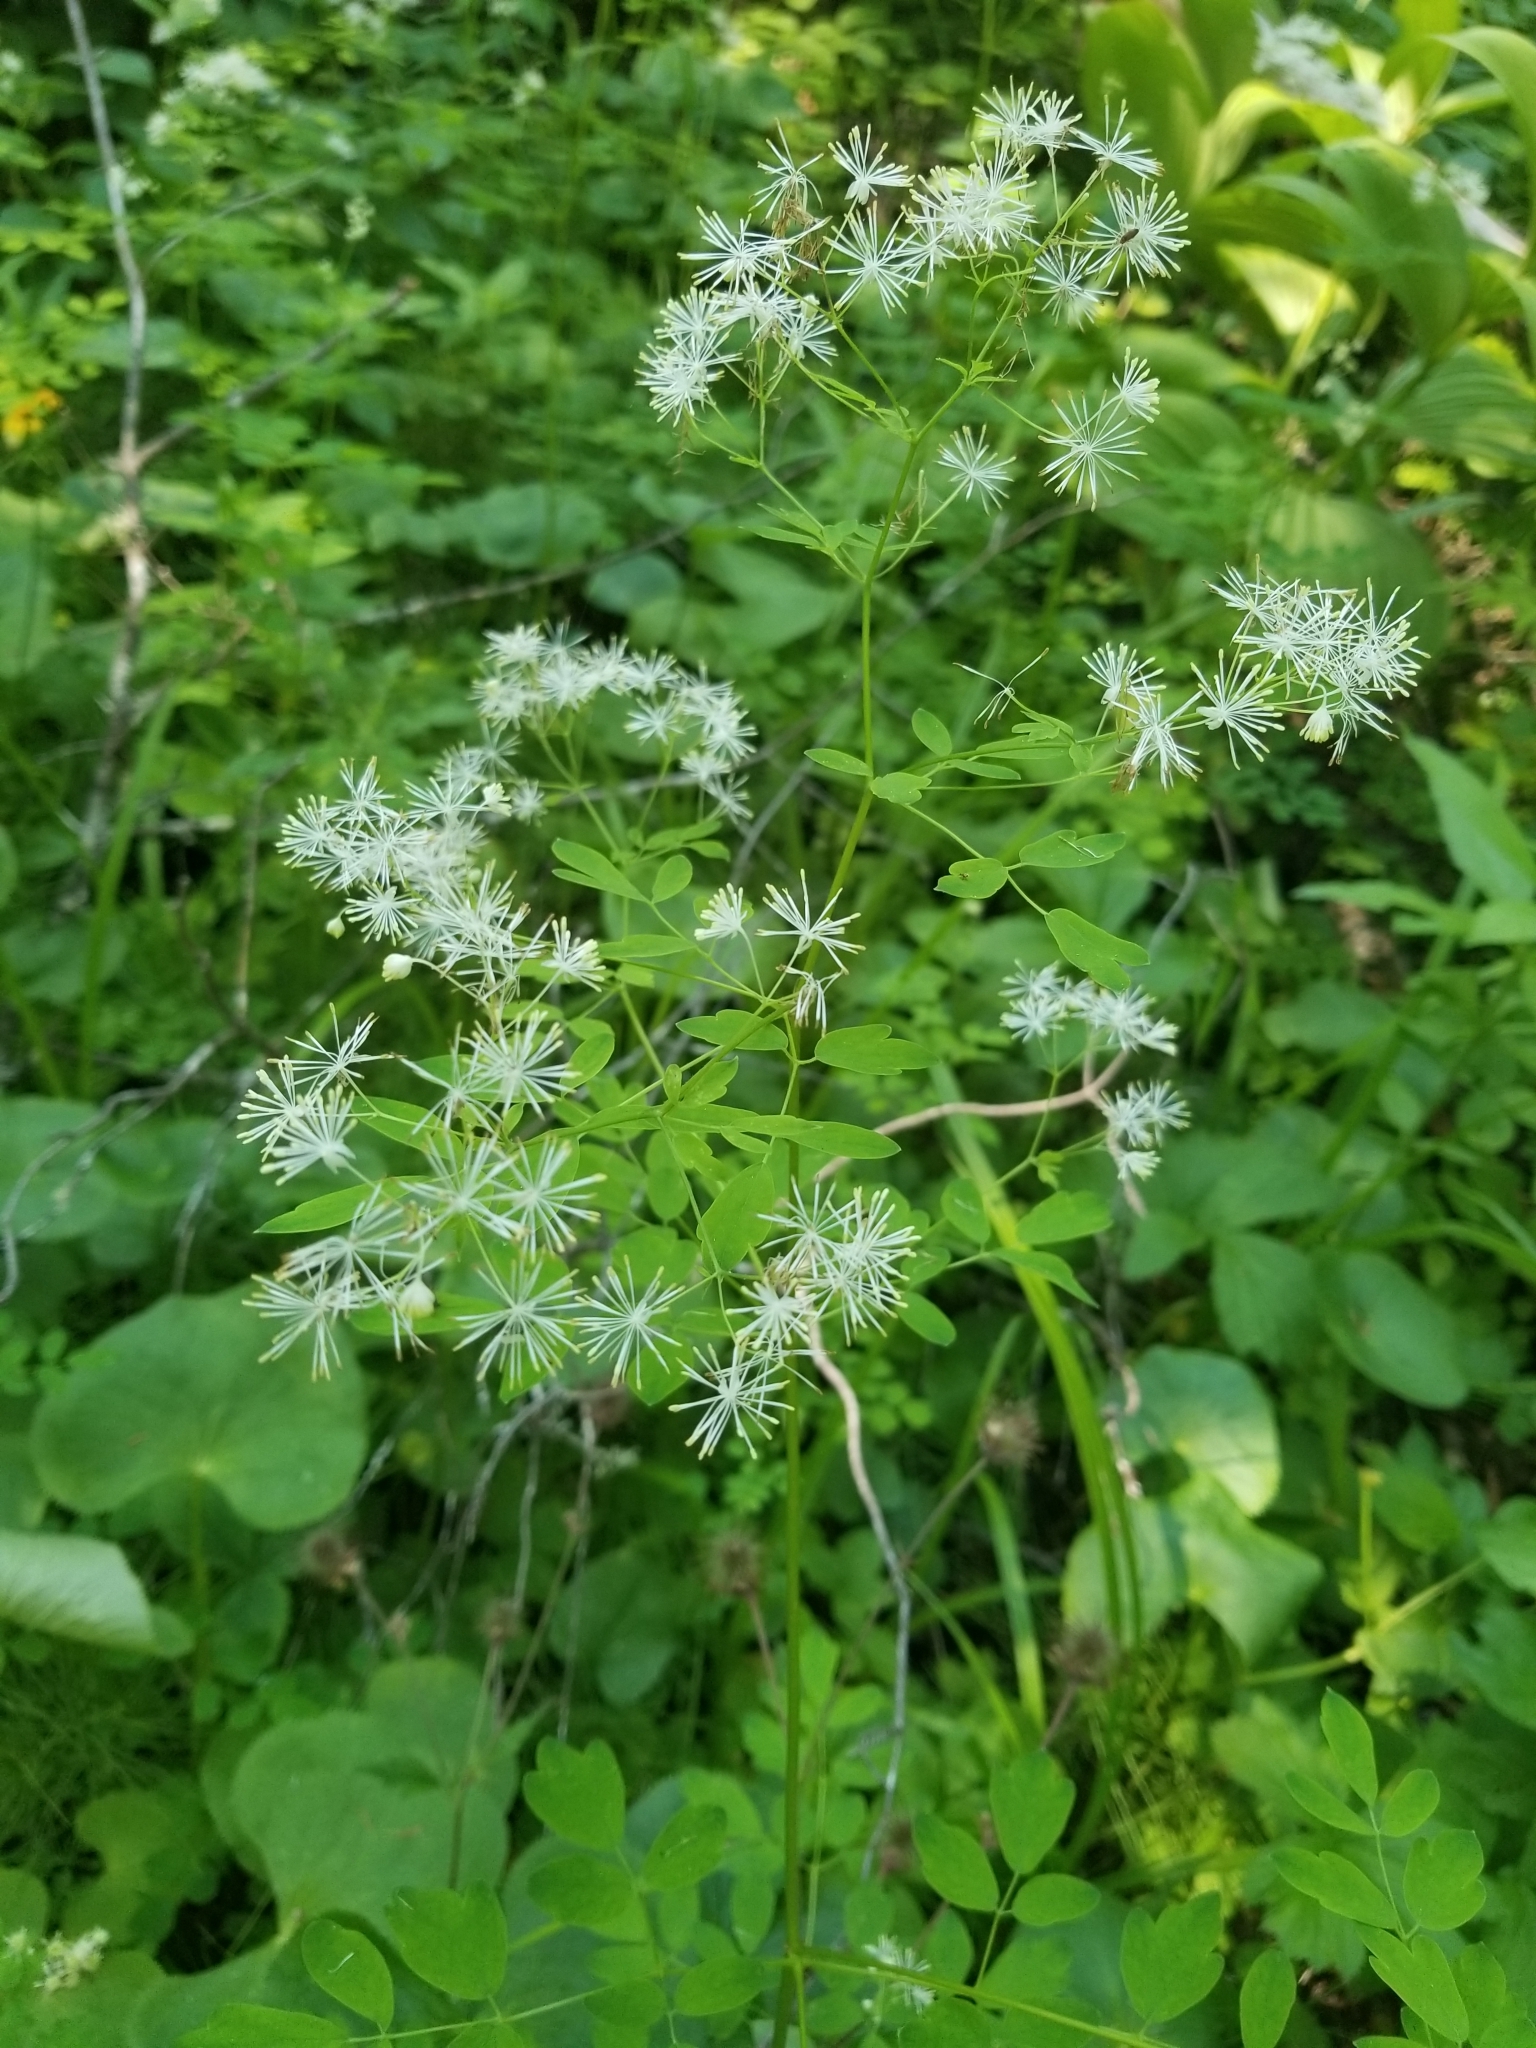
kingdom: Plantae
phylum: Tracheophyta
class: Magnoliopsida
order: Ranunculales
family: Ranunculaceae
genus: Thalictrum
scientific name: Thalictrum pubescens
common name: King-of-the-meadow
